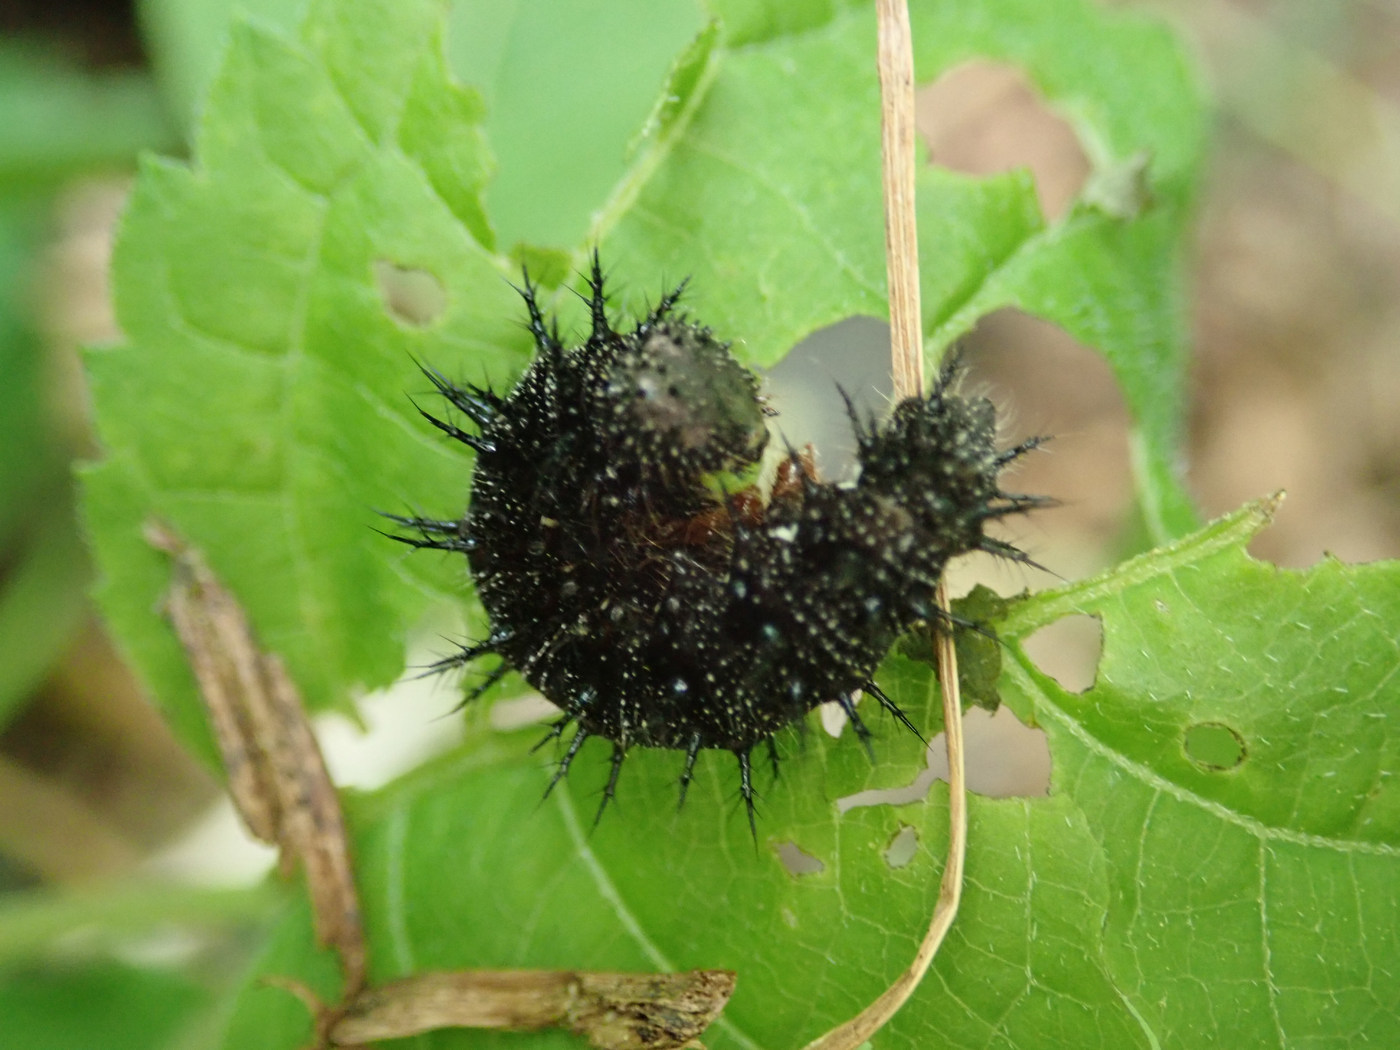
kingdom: Animalia
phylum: Arthropoda
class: Insecta
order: Lepidoptera
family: Nymphalidae
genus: Vanessa
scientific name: Vanessa atalanta
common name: Red admiral
